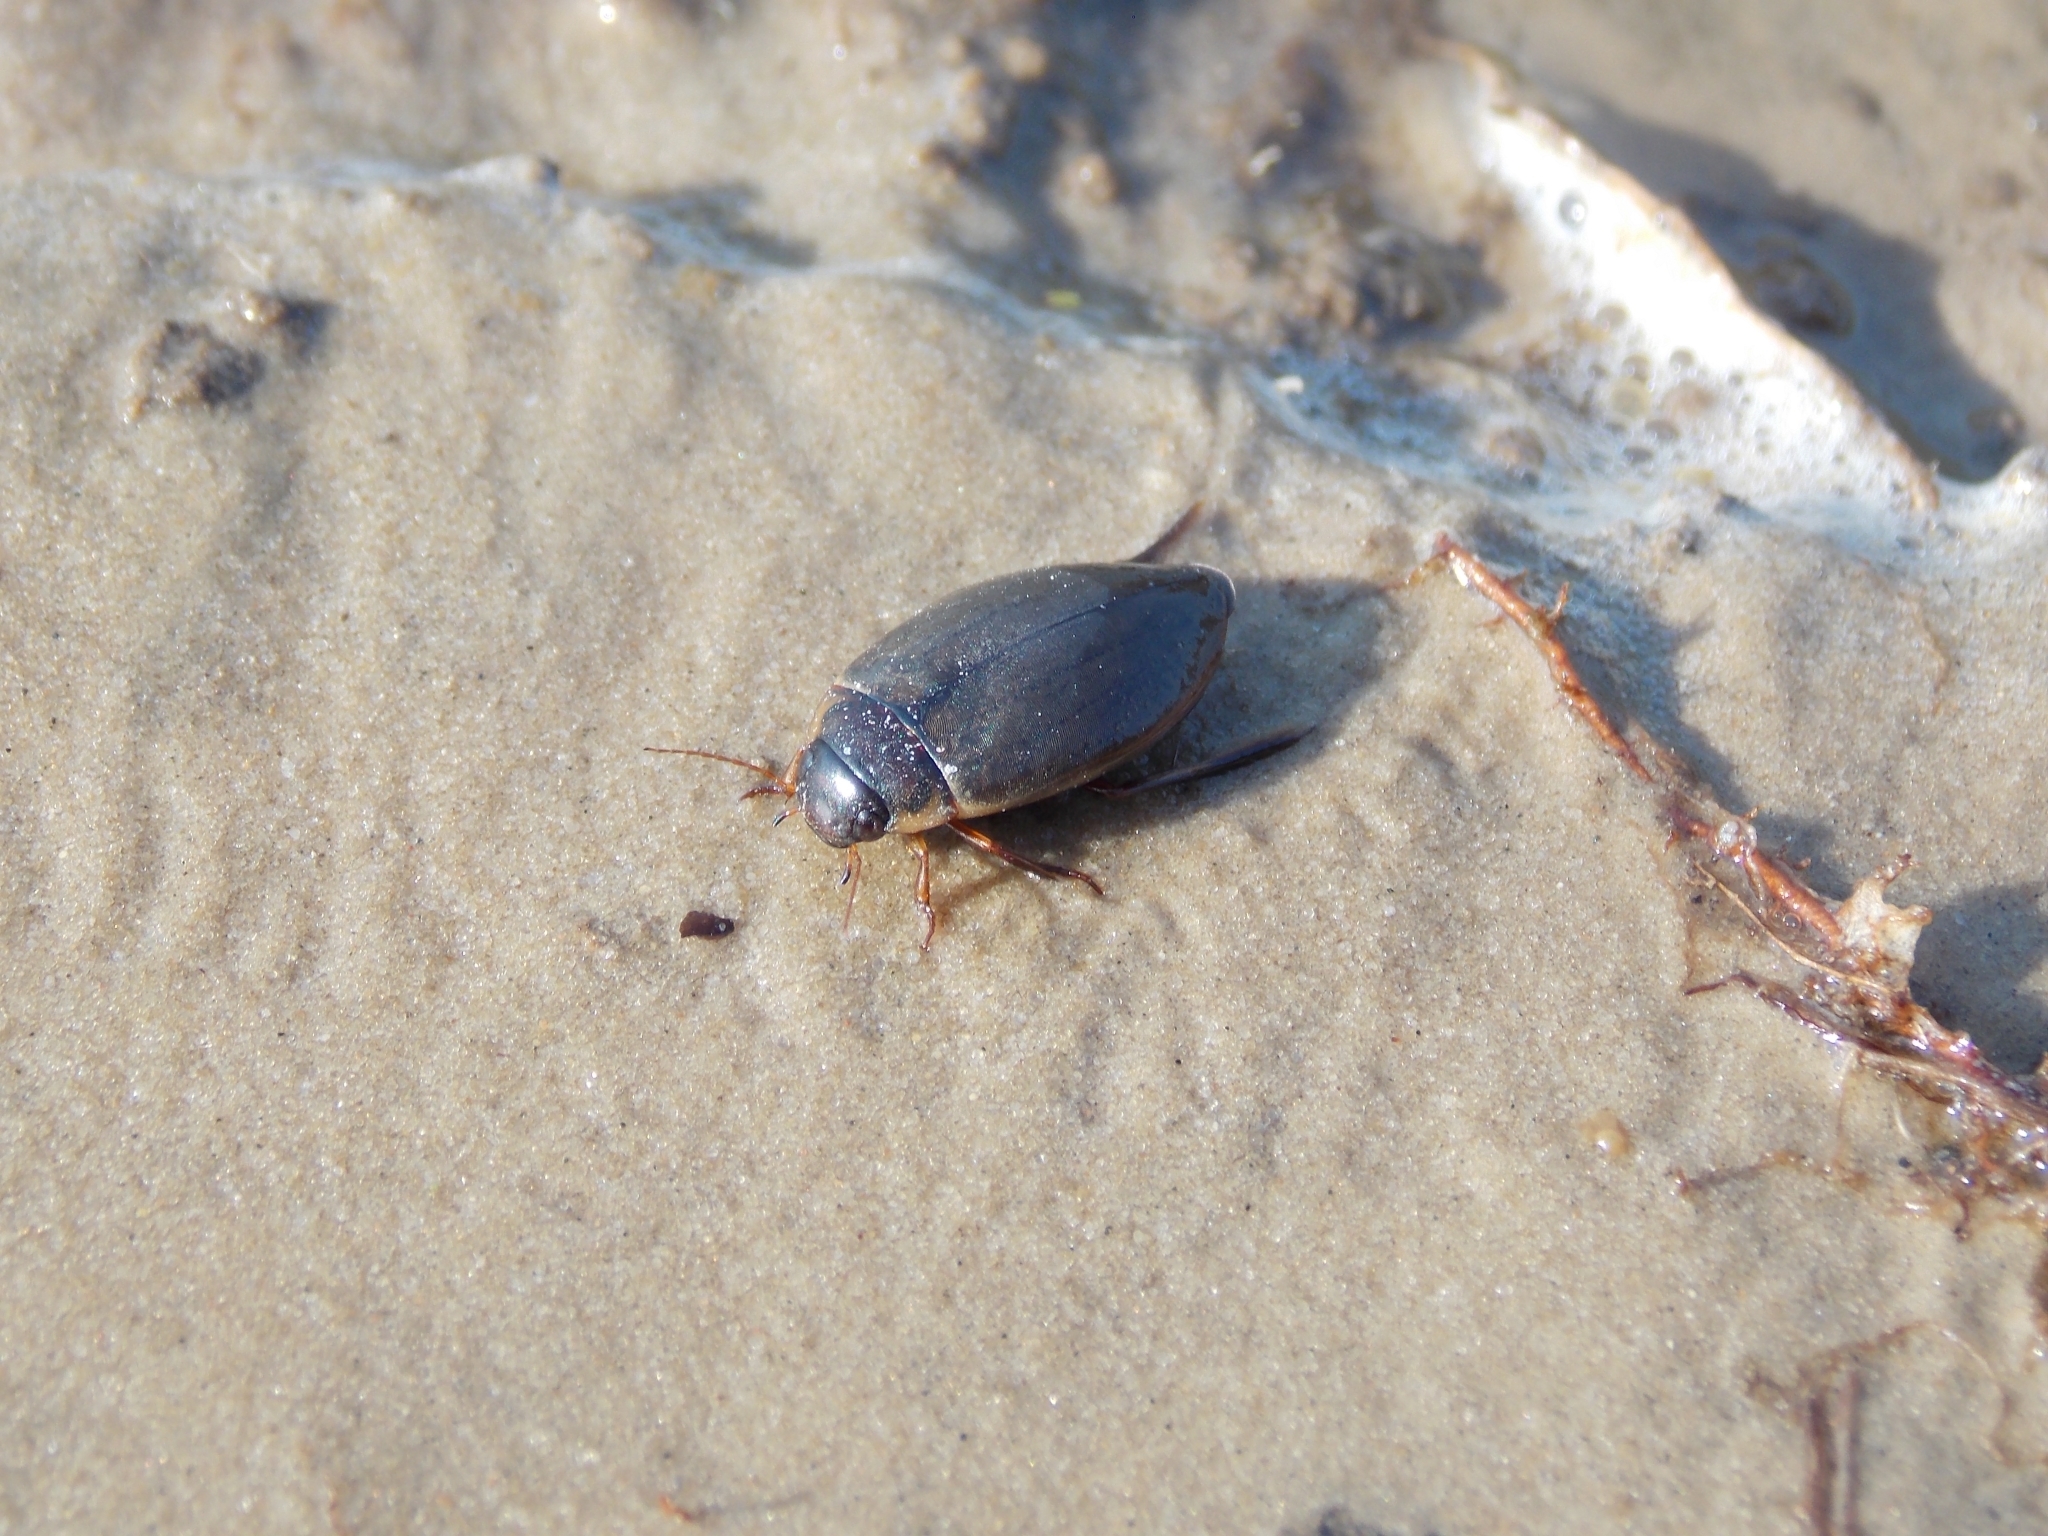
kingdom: Animalia
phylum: Arthropoda
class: Insecta
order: Coleoptera
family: Dytiscidae
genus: Colymbetes
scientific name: Colymbetes fuscus
